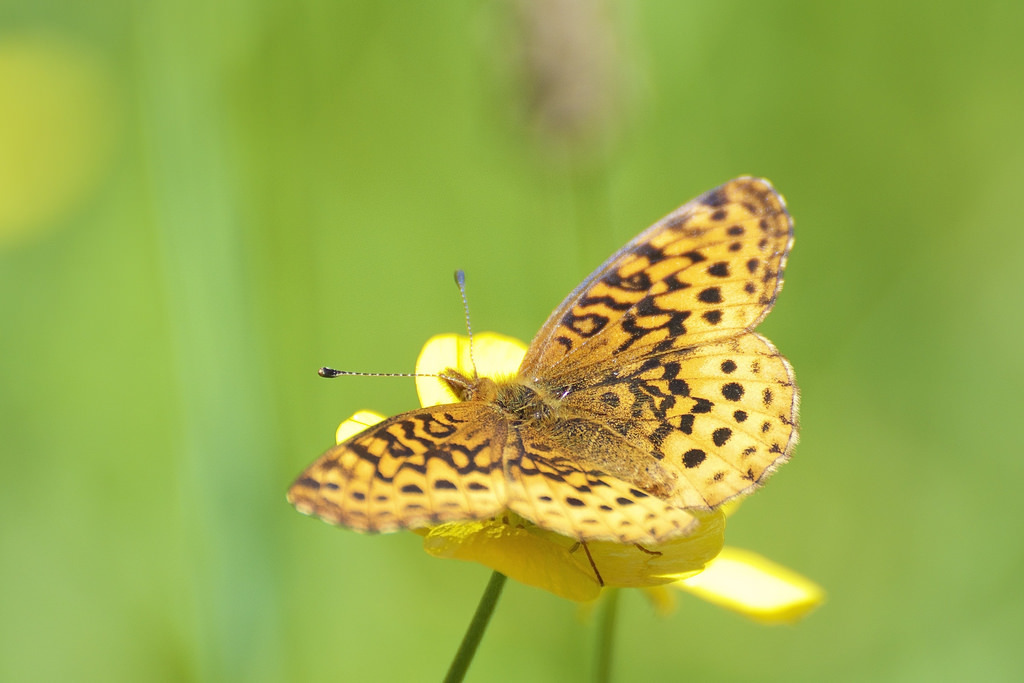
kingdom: Animalia
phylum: Arthropoda
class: Insecta
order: Lepidoptera
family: Nymphalidae
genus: Clossiana
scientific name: Clossiana toddi
